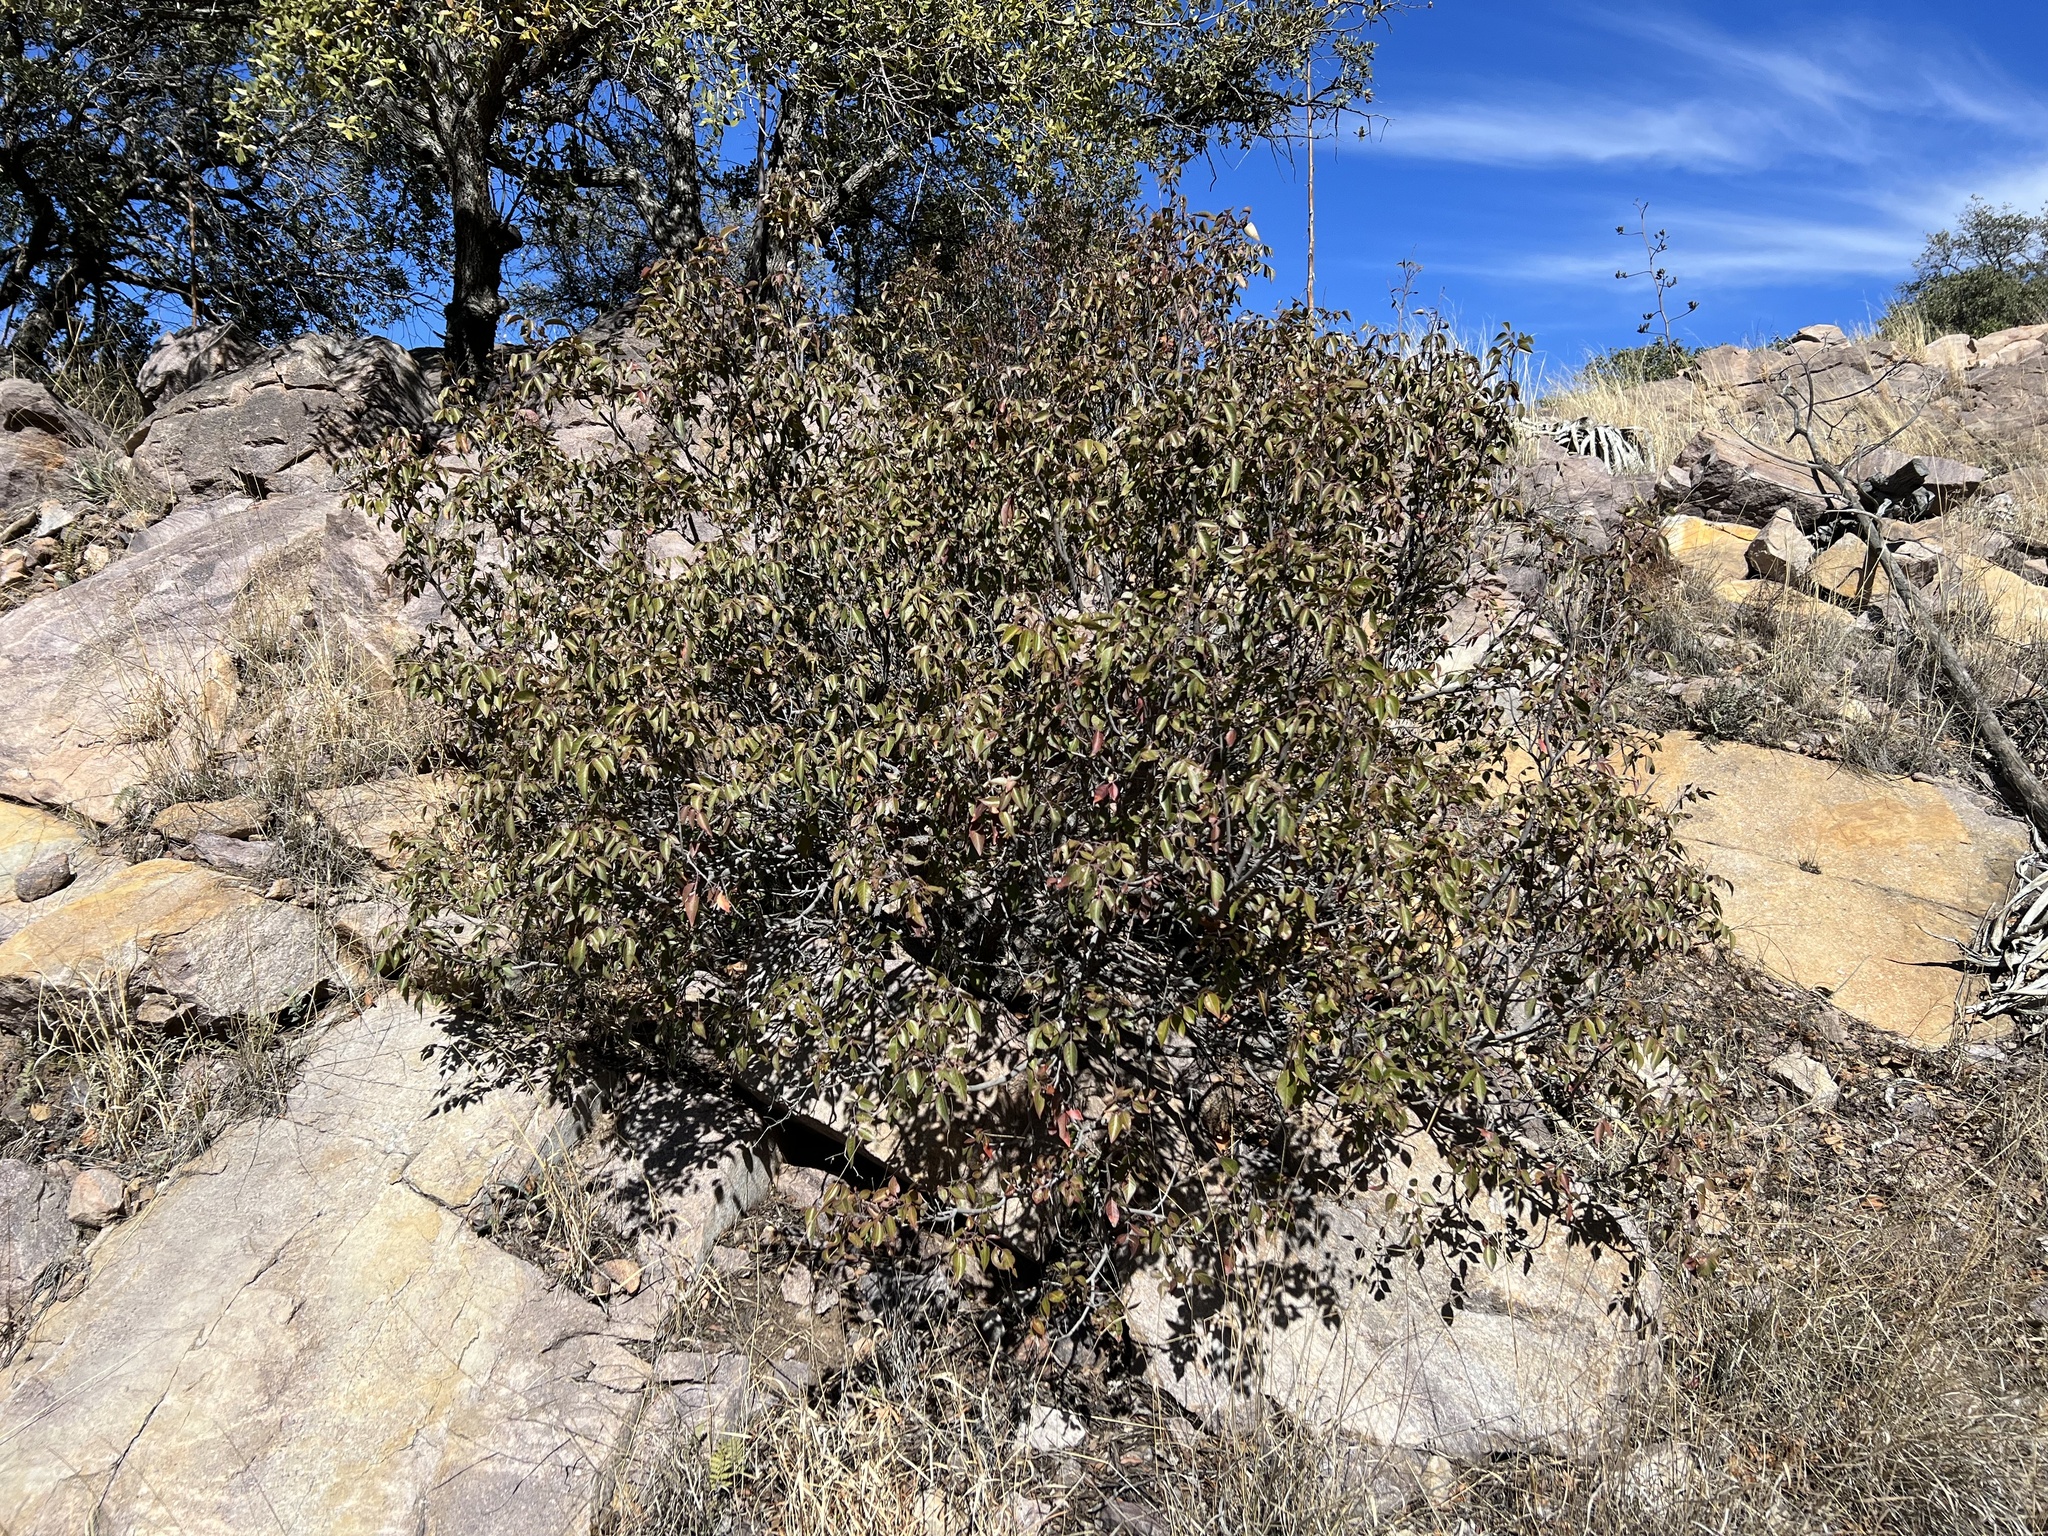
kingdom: Plantae
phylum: Tracheophyta
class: Magnoliopsida
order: Sapindales
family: Anacardiaceae
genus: Rhus
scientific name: Rhus virens
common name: Evergreen sumac
